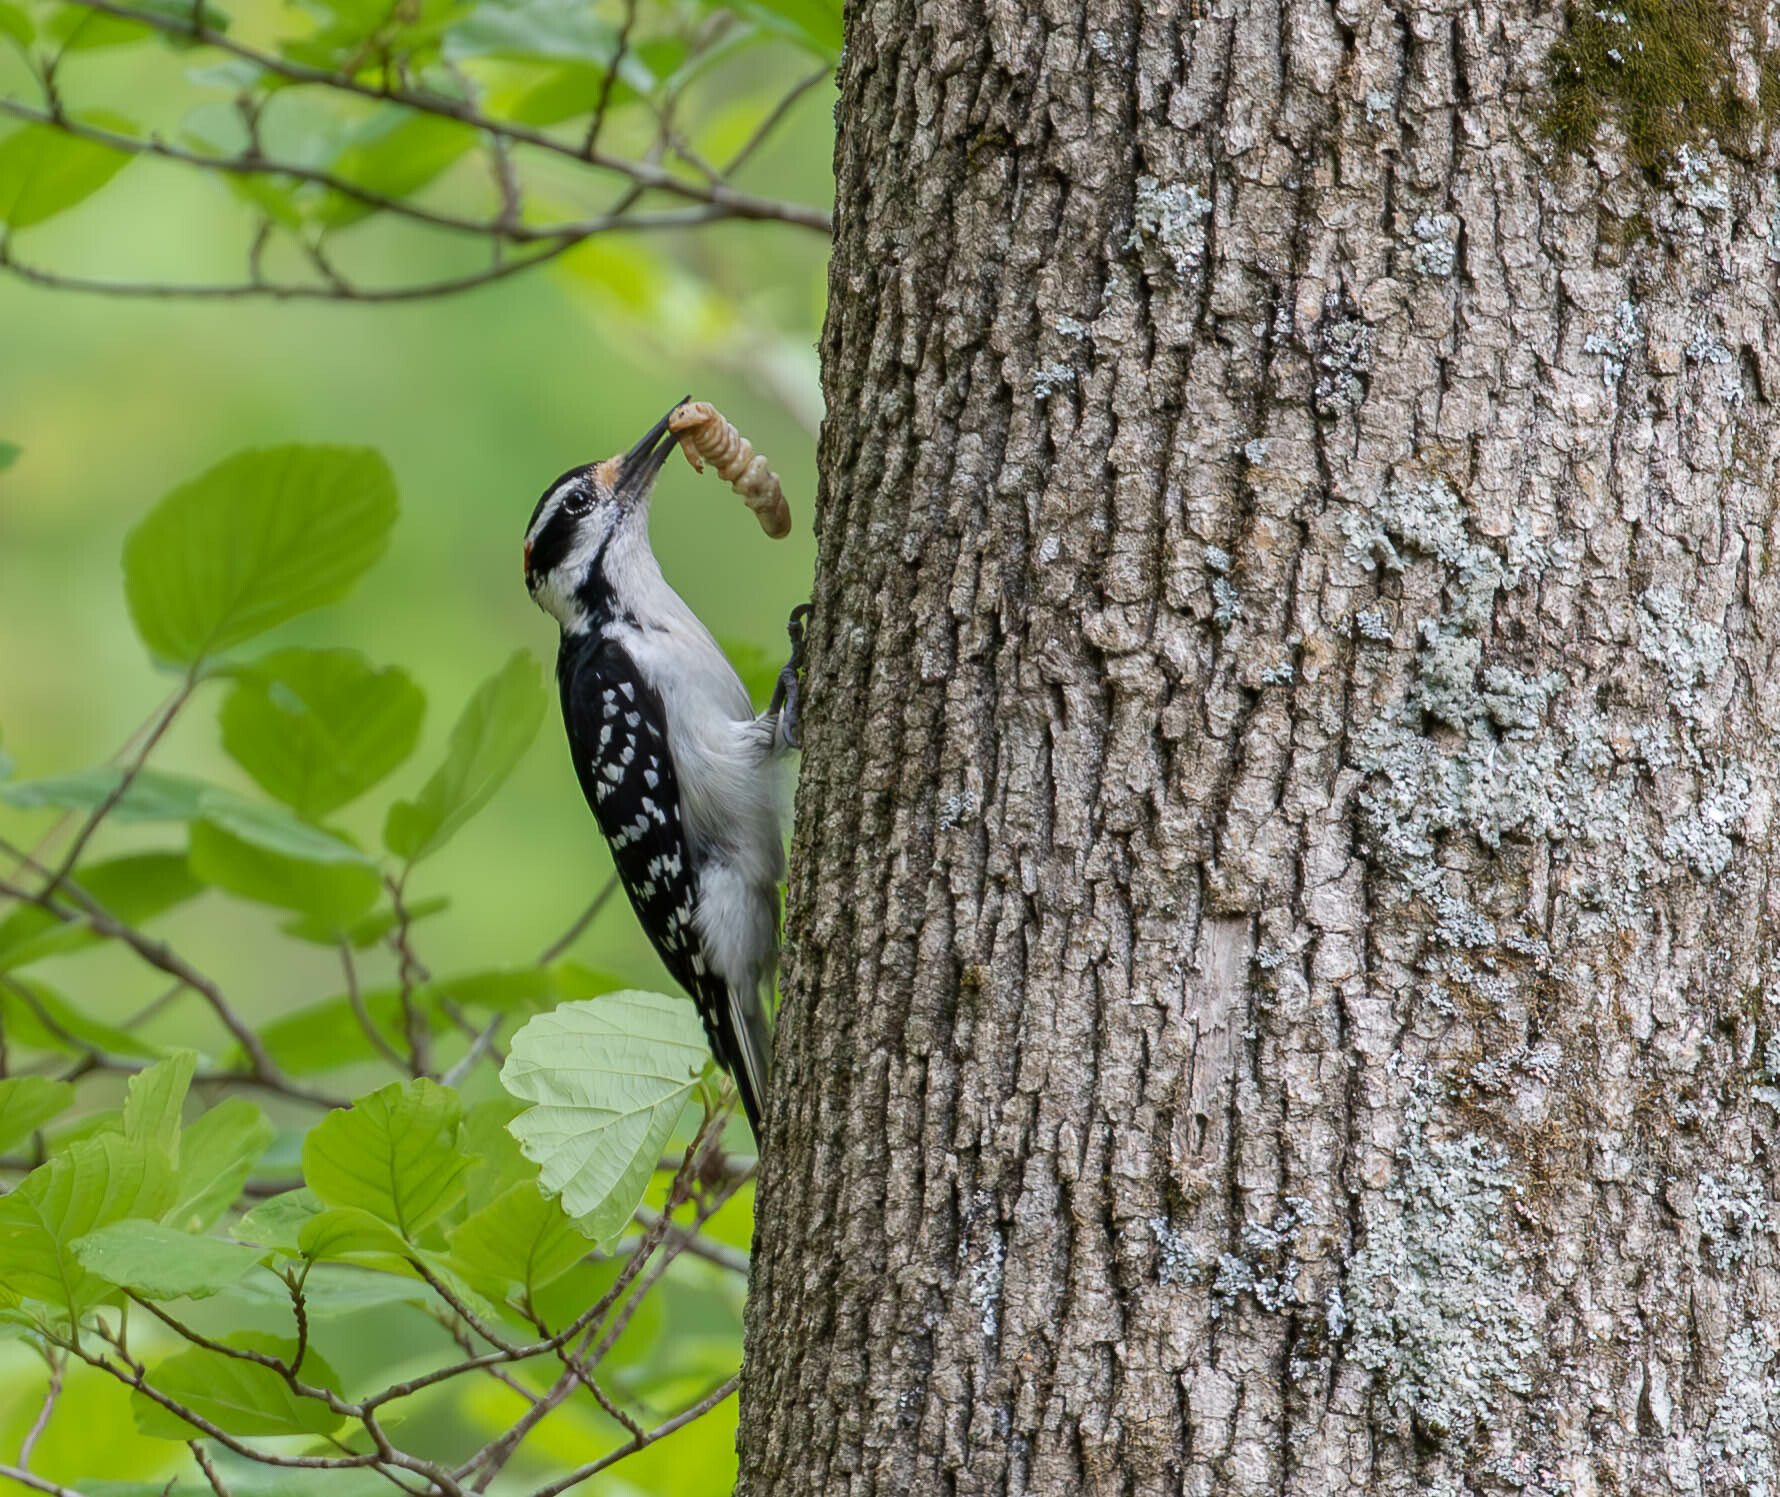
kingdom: Animalia
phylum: Chordata
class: Aves
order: Piciformes
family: Picidae
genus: Leuconotopicus
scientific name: Leuconotopicus villosus
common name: Hairy woodpecker
